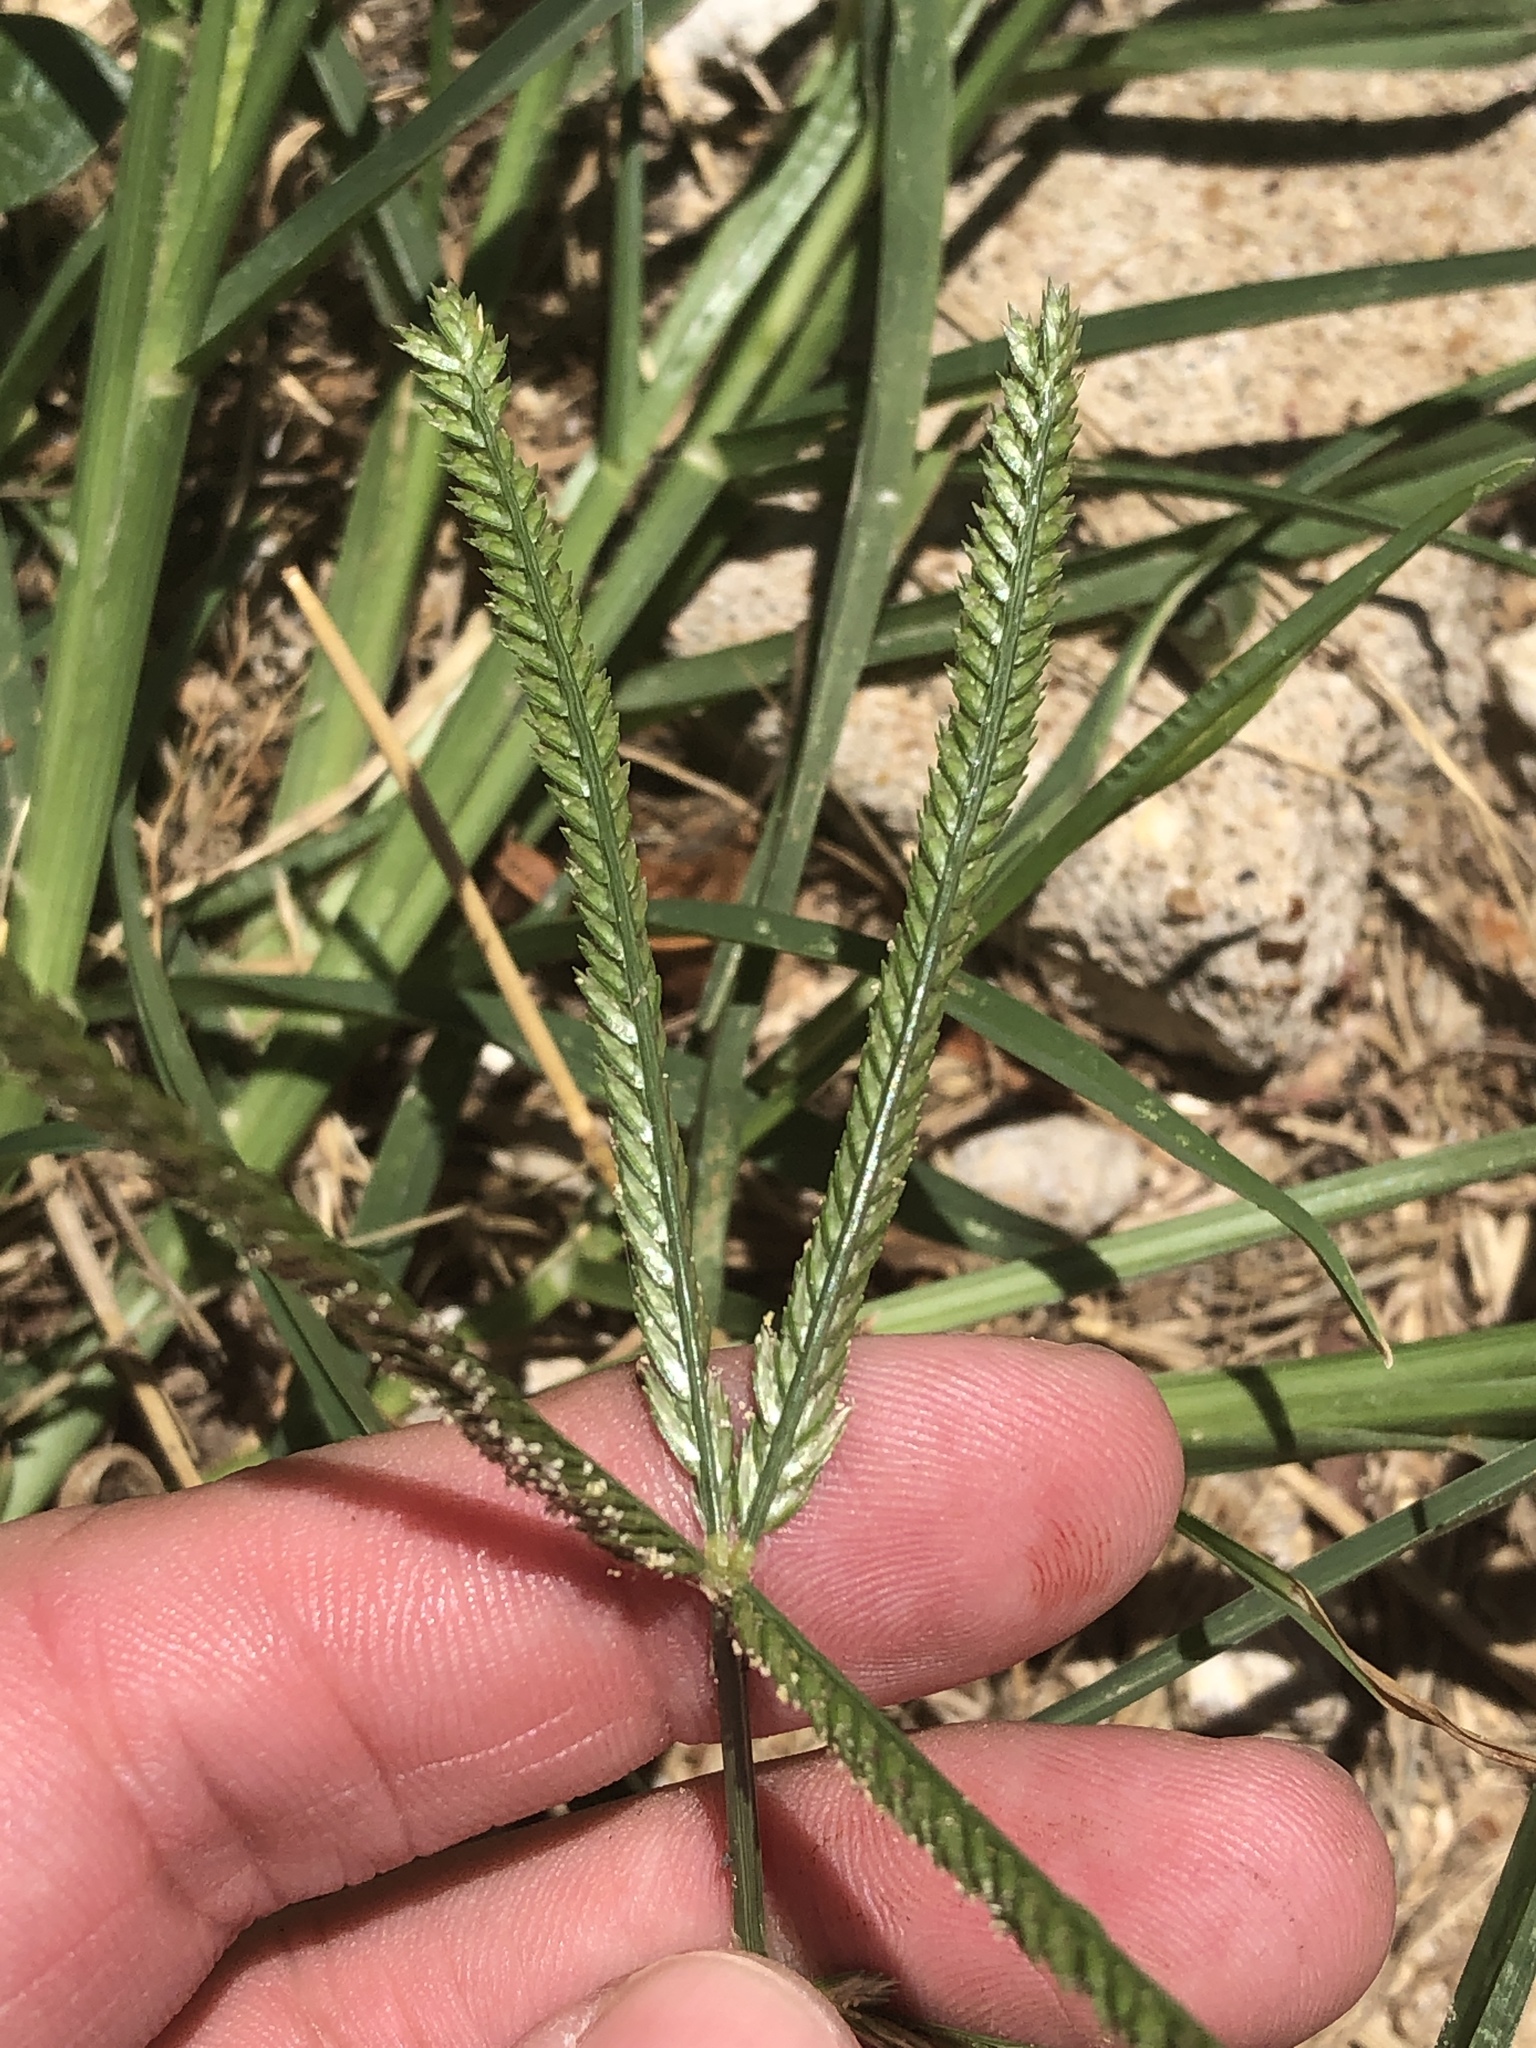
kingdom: Plantae
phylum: Tracheophyta
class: Liliopsida
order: Poales
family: Poaceae
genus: Eleusine
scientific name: Eleusine indica
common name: Yard-grass
